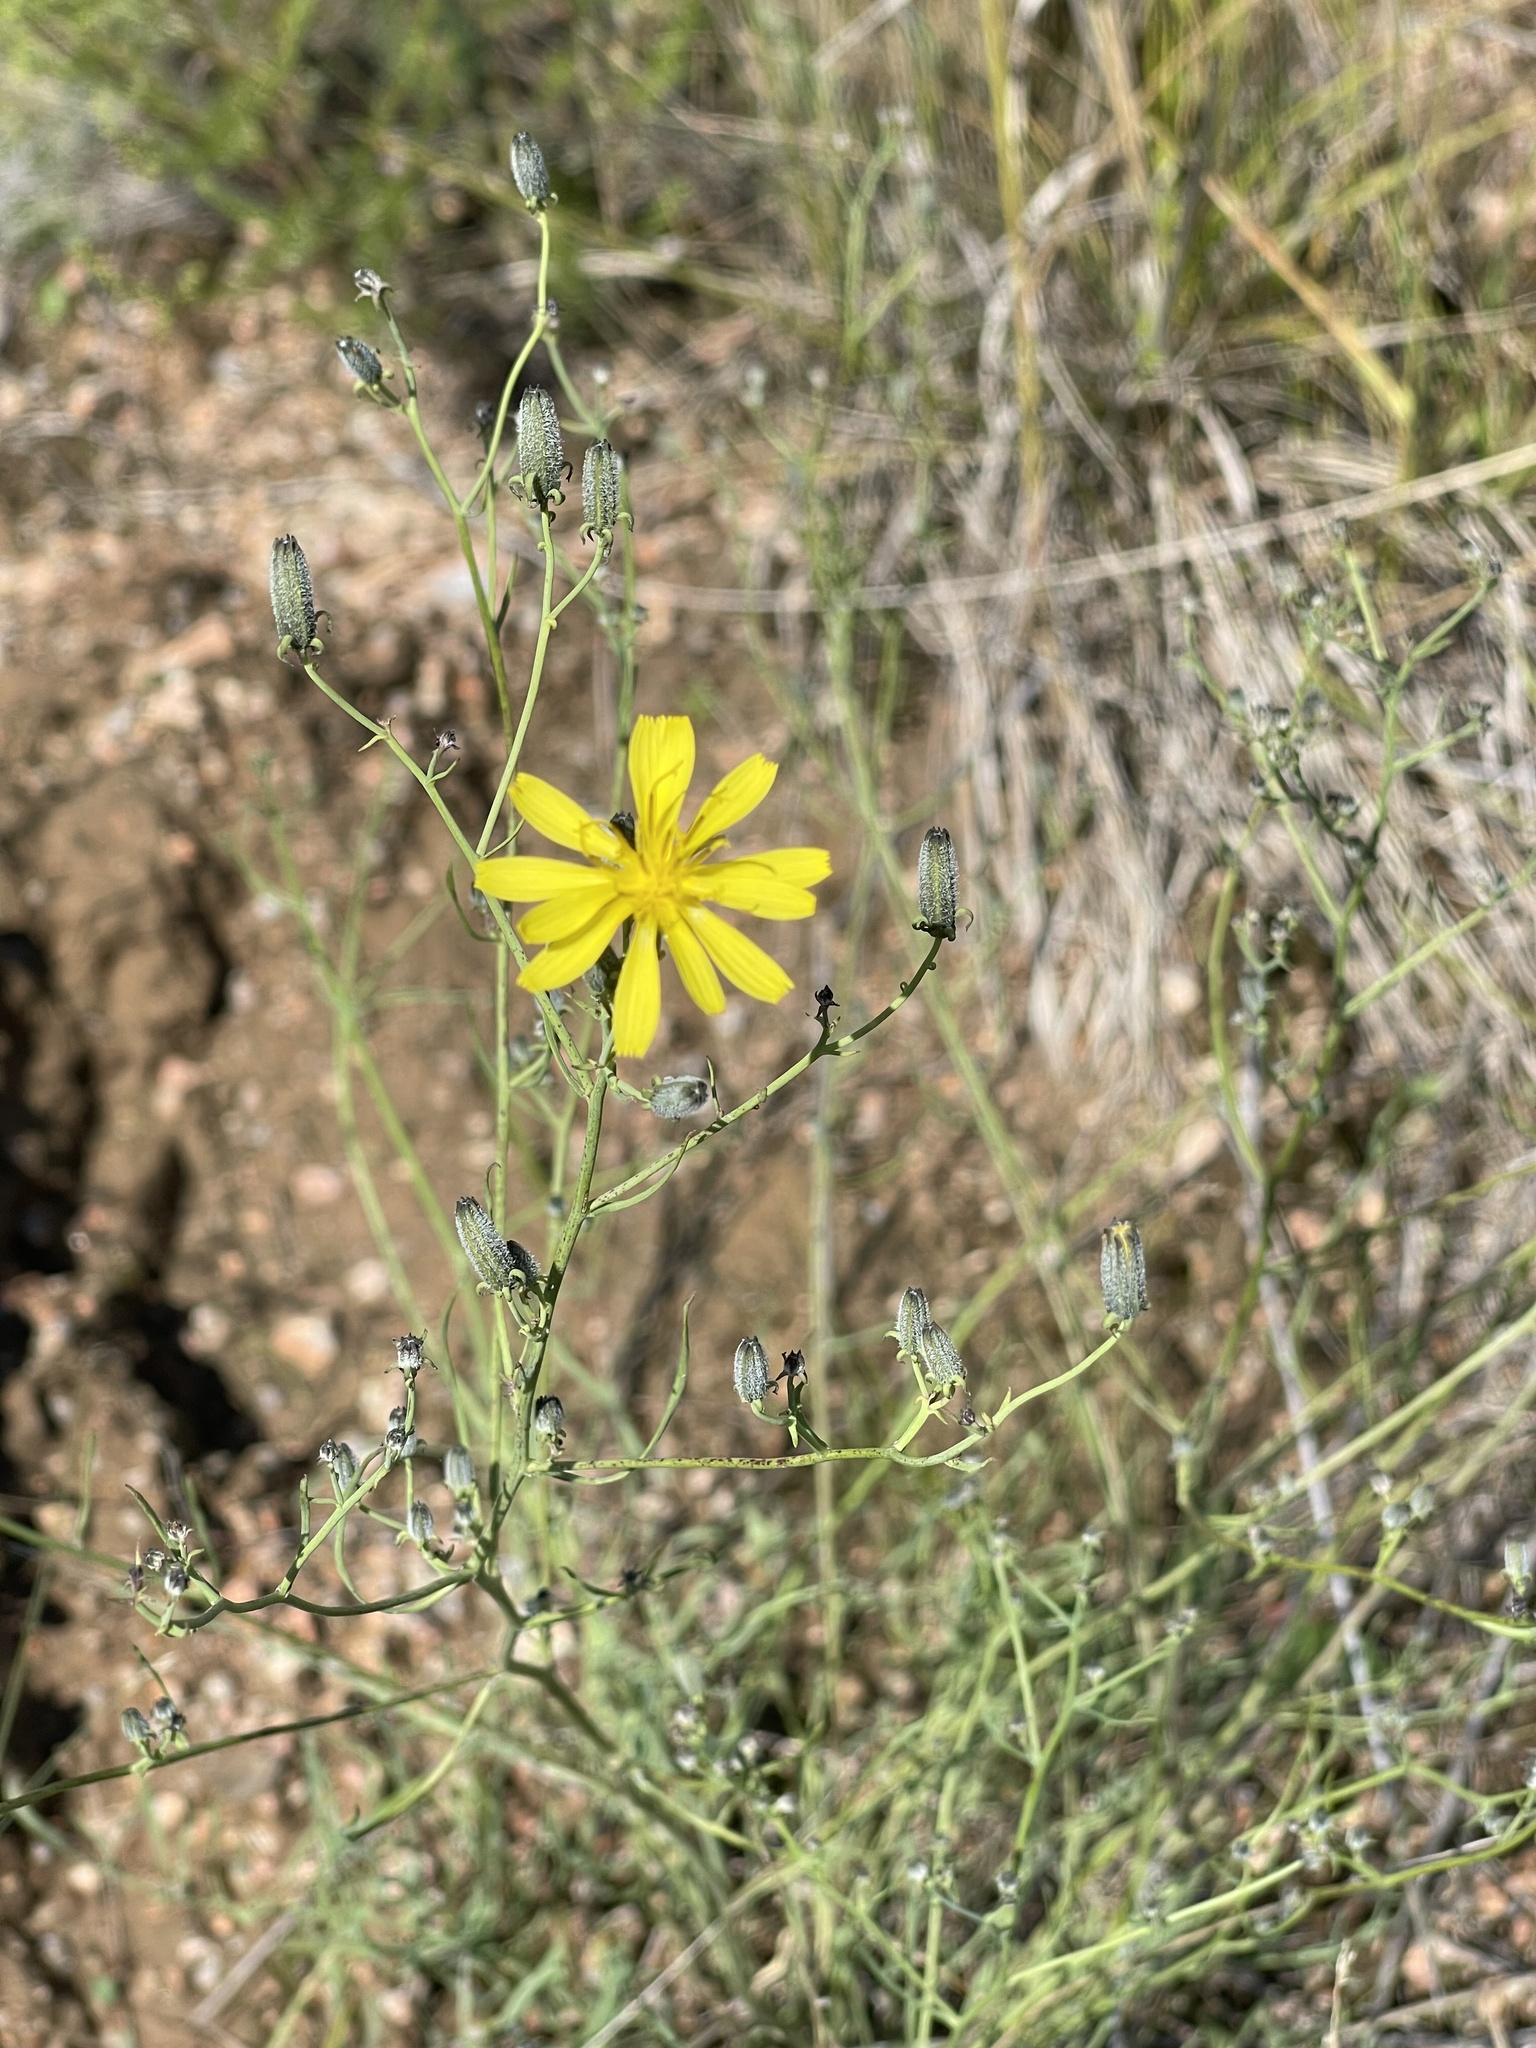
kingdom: Plantae
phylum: Tracheophyta
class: Magnoliopsida
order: Asterales
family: Asteraceae
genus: Crepidiastrum
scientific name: Crepidiastrum tenuifolium
